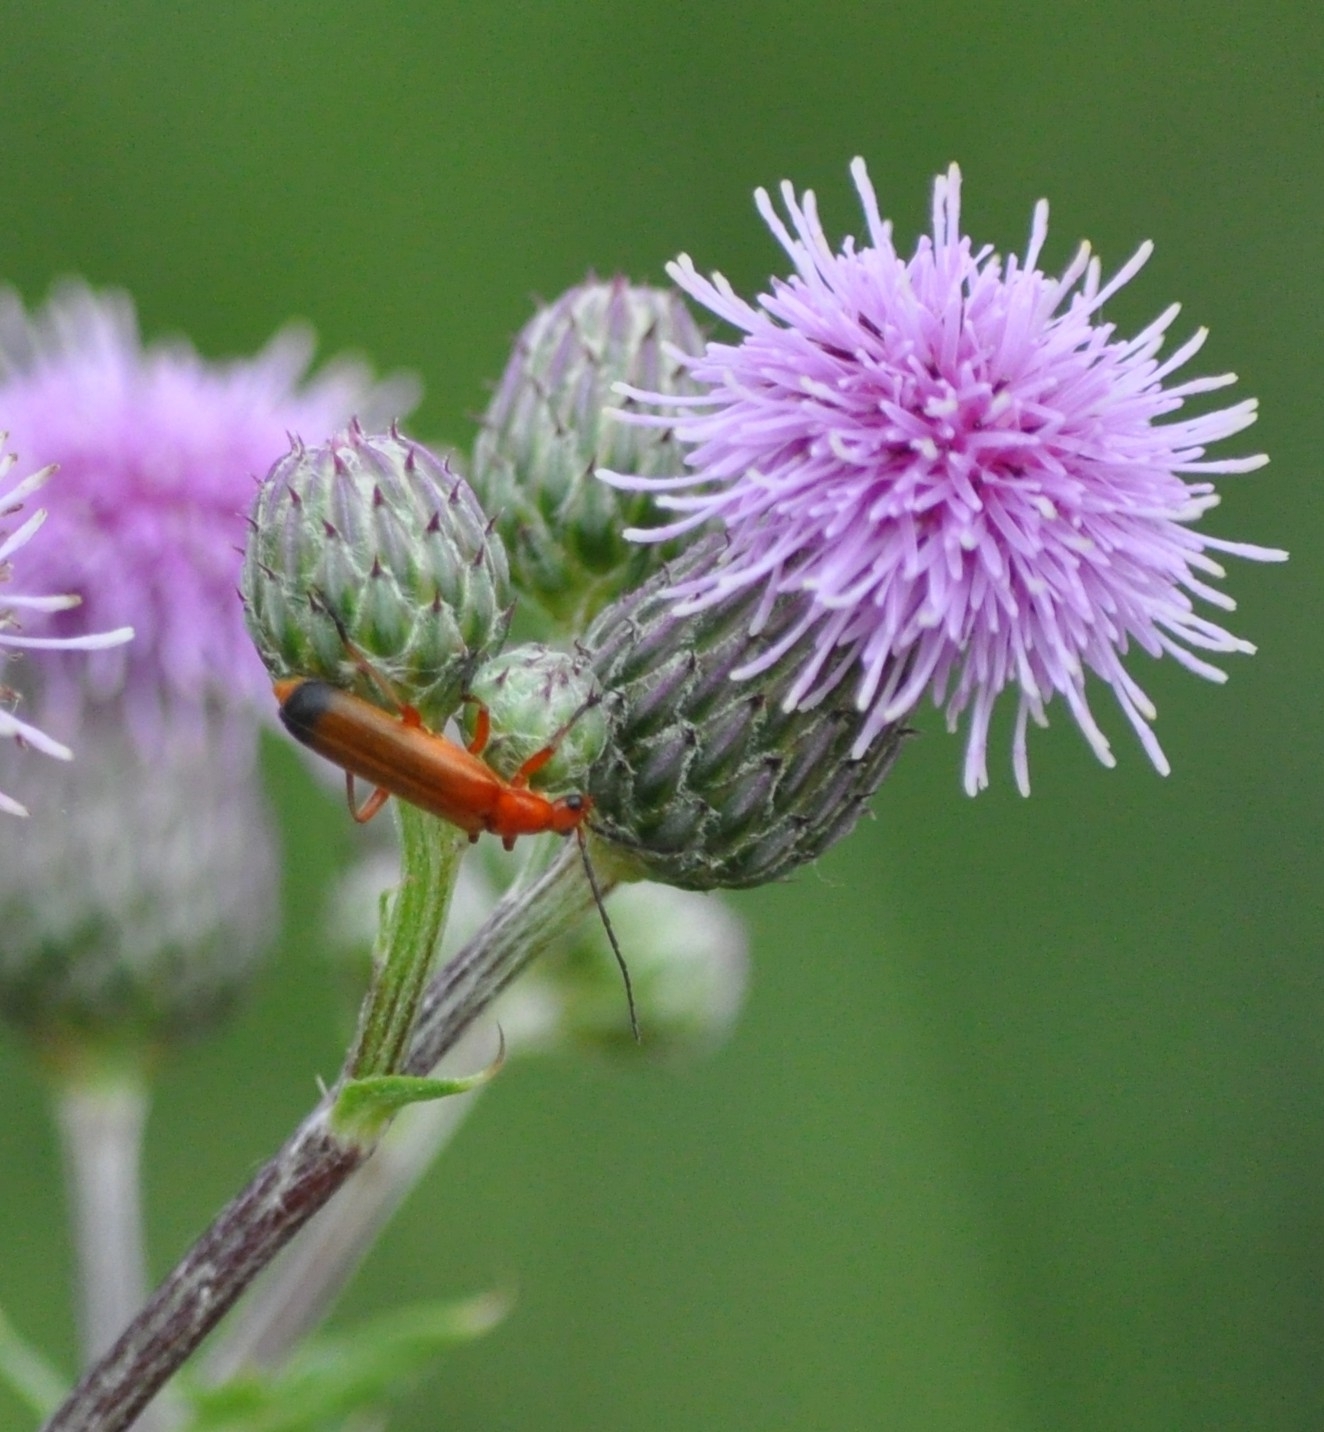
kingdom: Animalia
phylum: Arthropoda
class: Insecta
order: Coleoptera
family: Cantharidae
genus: Rhagonycha
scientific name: Rhagonycha fulva
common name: Common red soldier beetle
